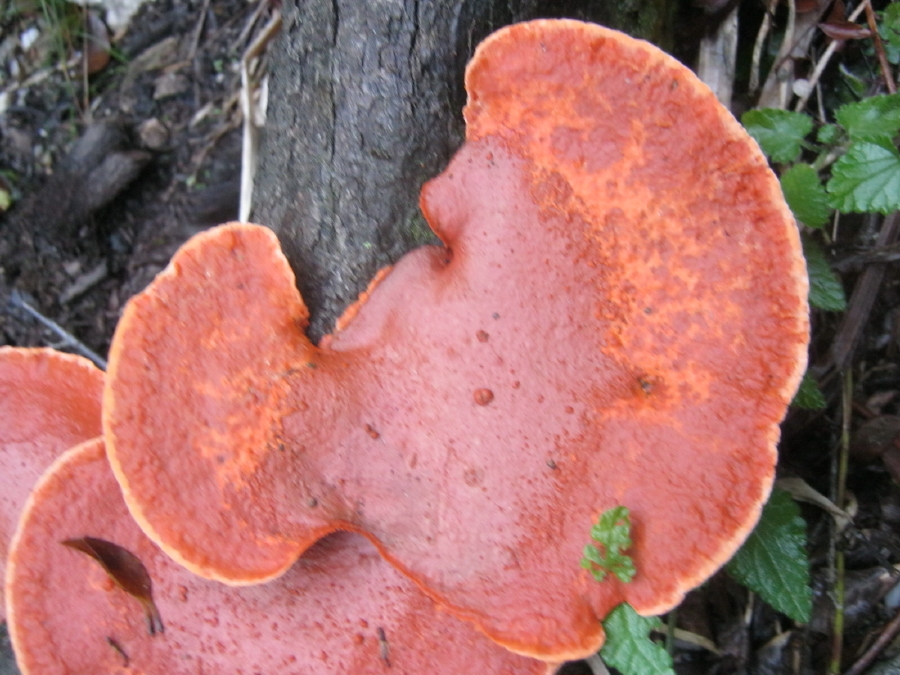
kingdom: Fungi
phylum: Basidiomycota
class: Agaricomycetes
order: Polyporales
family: Polyporaceae
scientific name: Polyporaceae
